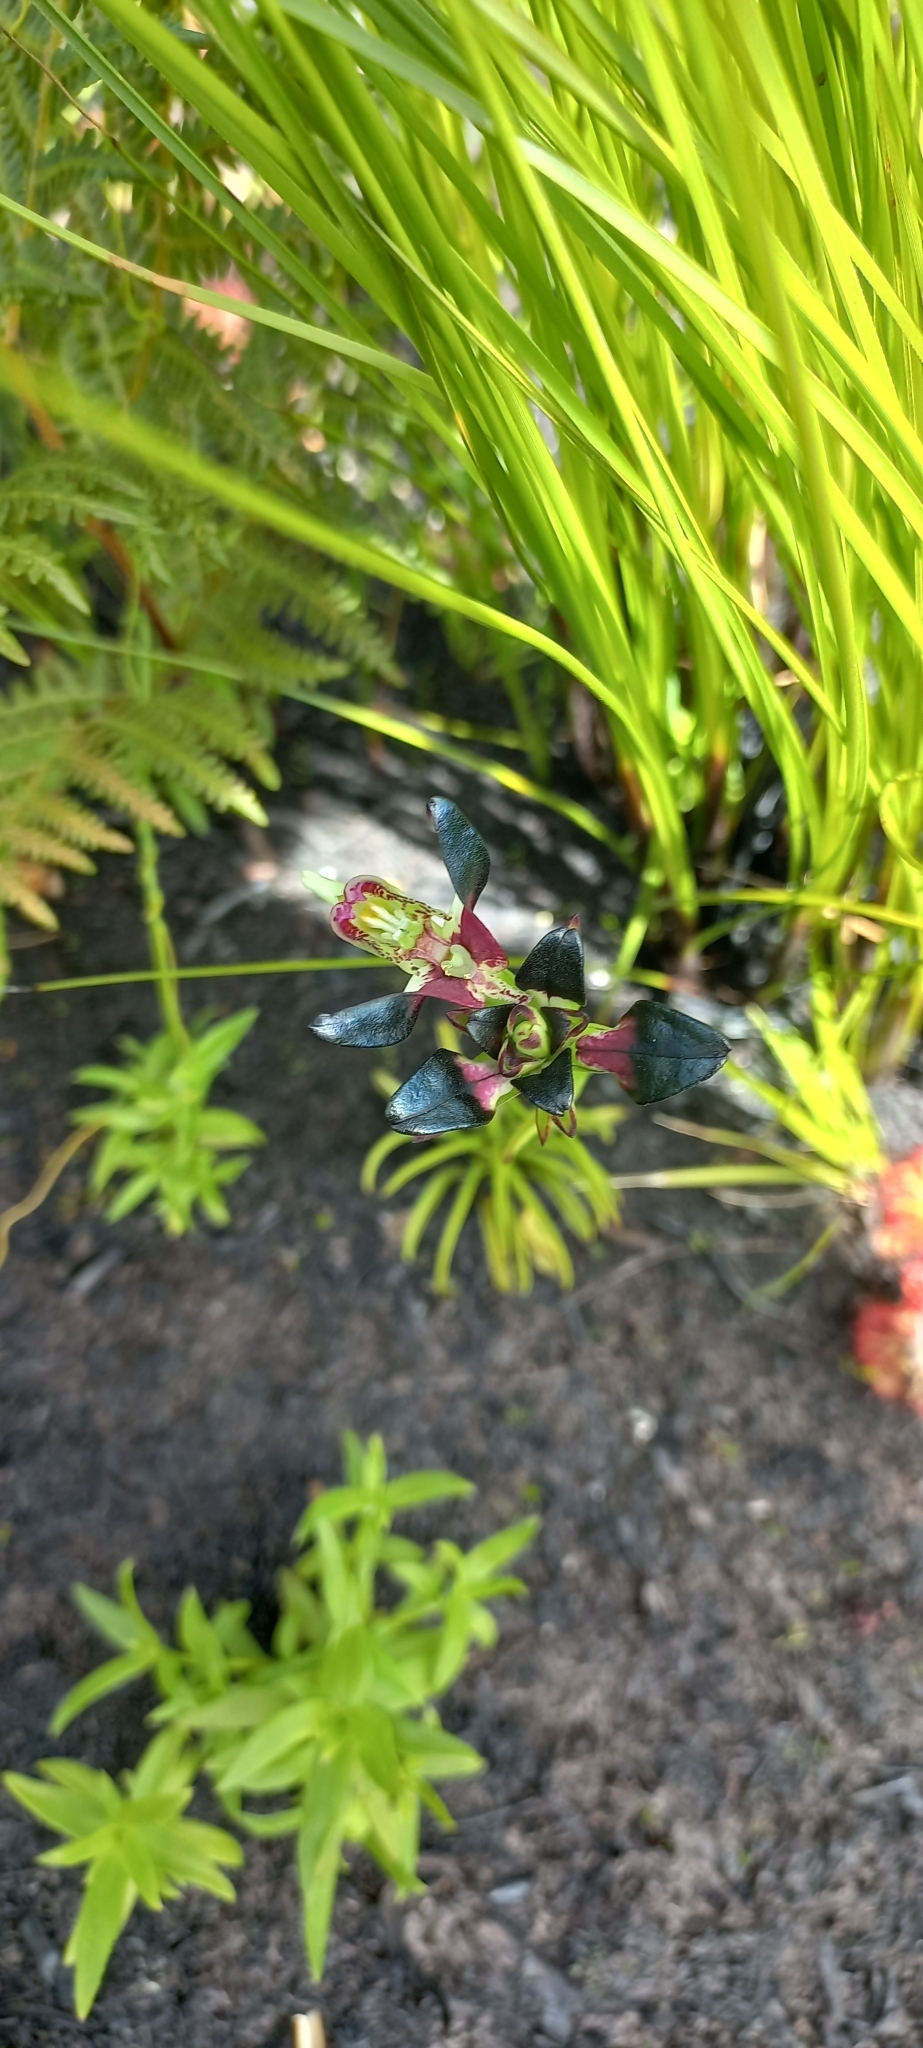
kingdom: Plantae
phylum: Tracheophyta
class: Liliopsida
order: Asparagales
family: Orchidaceae
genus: Disa
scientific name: Disa atricapilla
